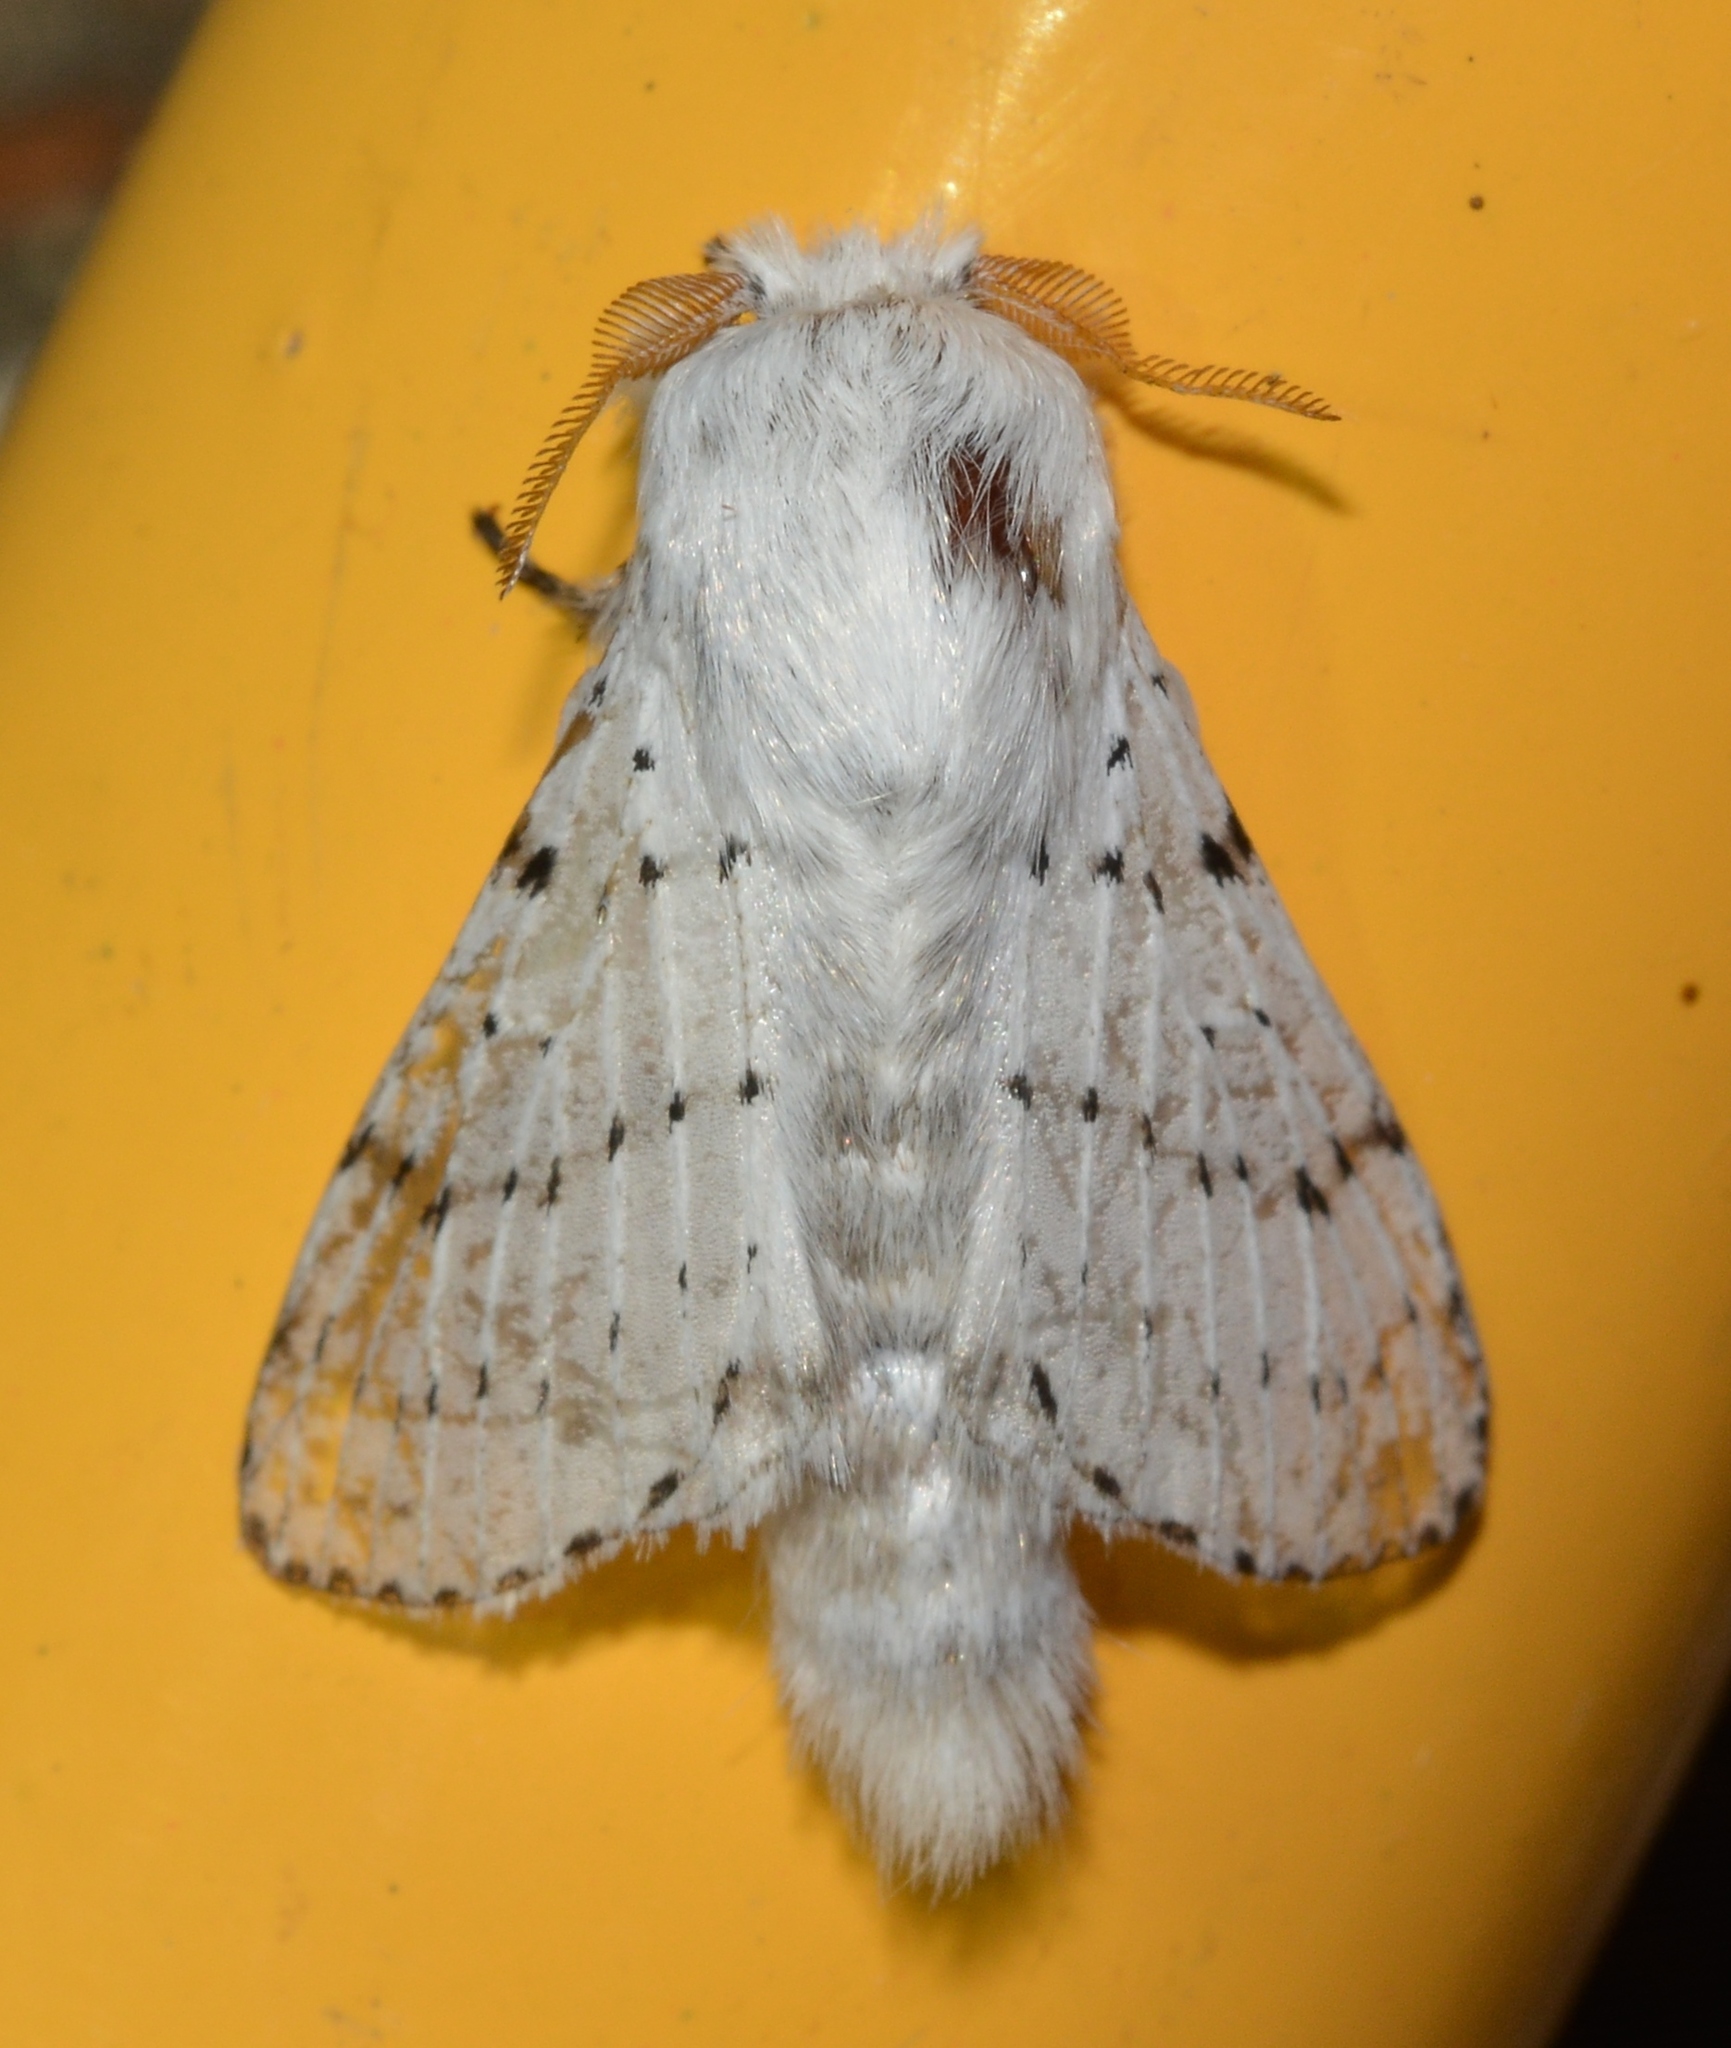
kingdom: Animalia
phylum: Arthropoda
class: Insecta
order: Lepidoptera
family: Lasiocampidae
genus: Artace
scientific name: Artace cribrarius
